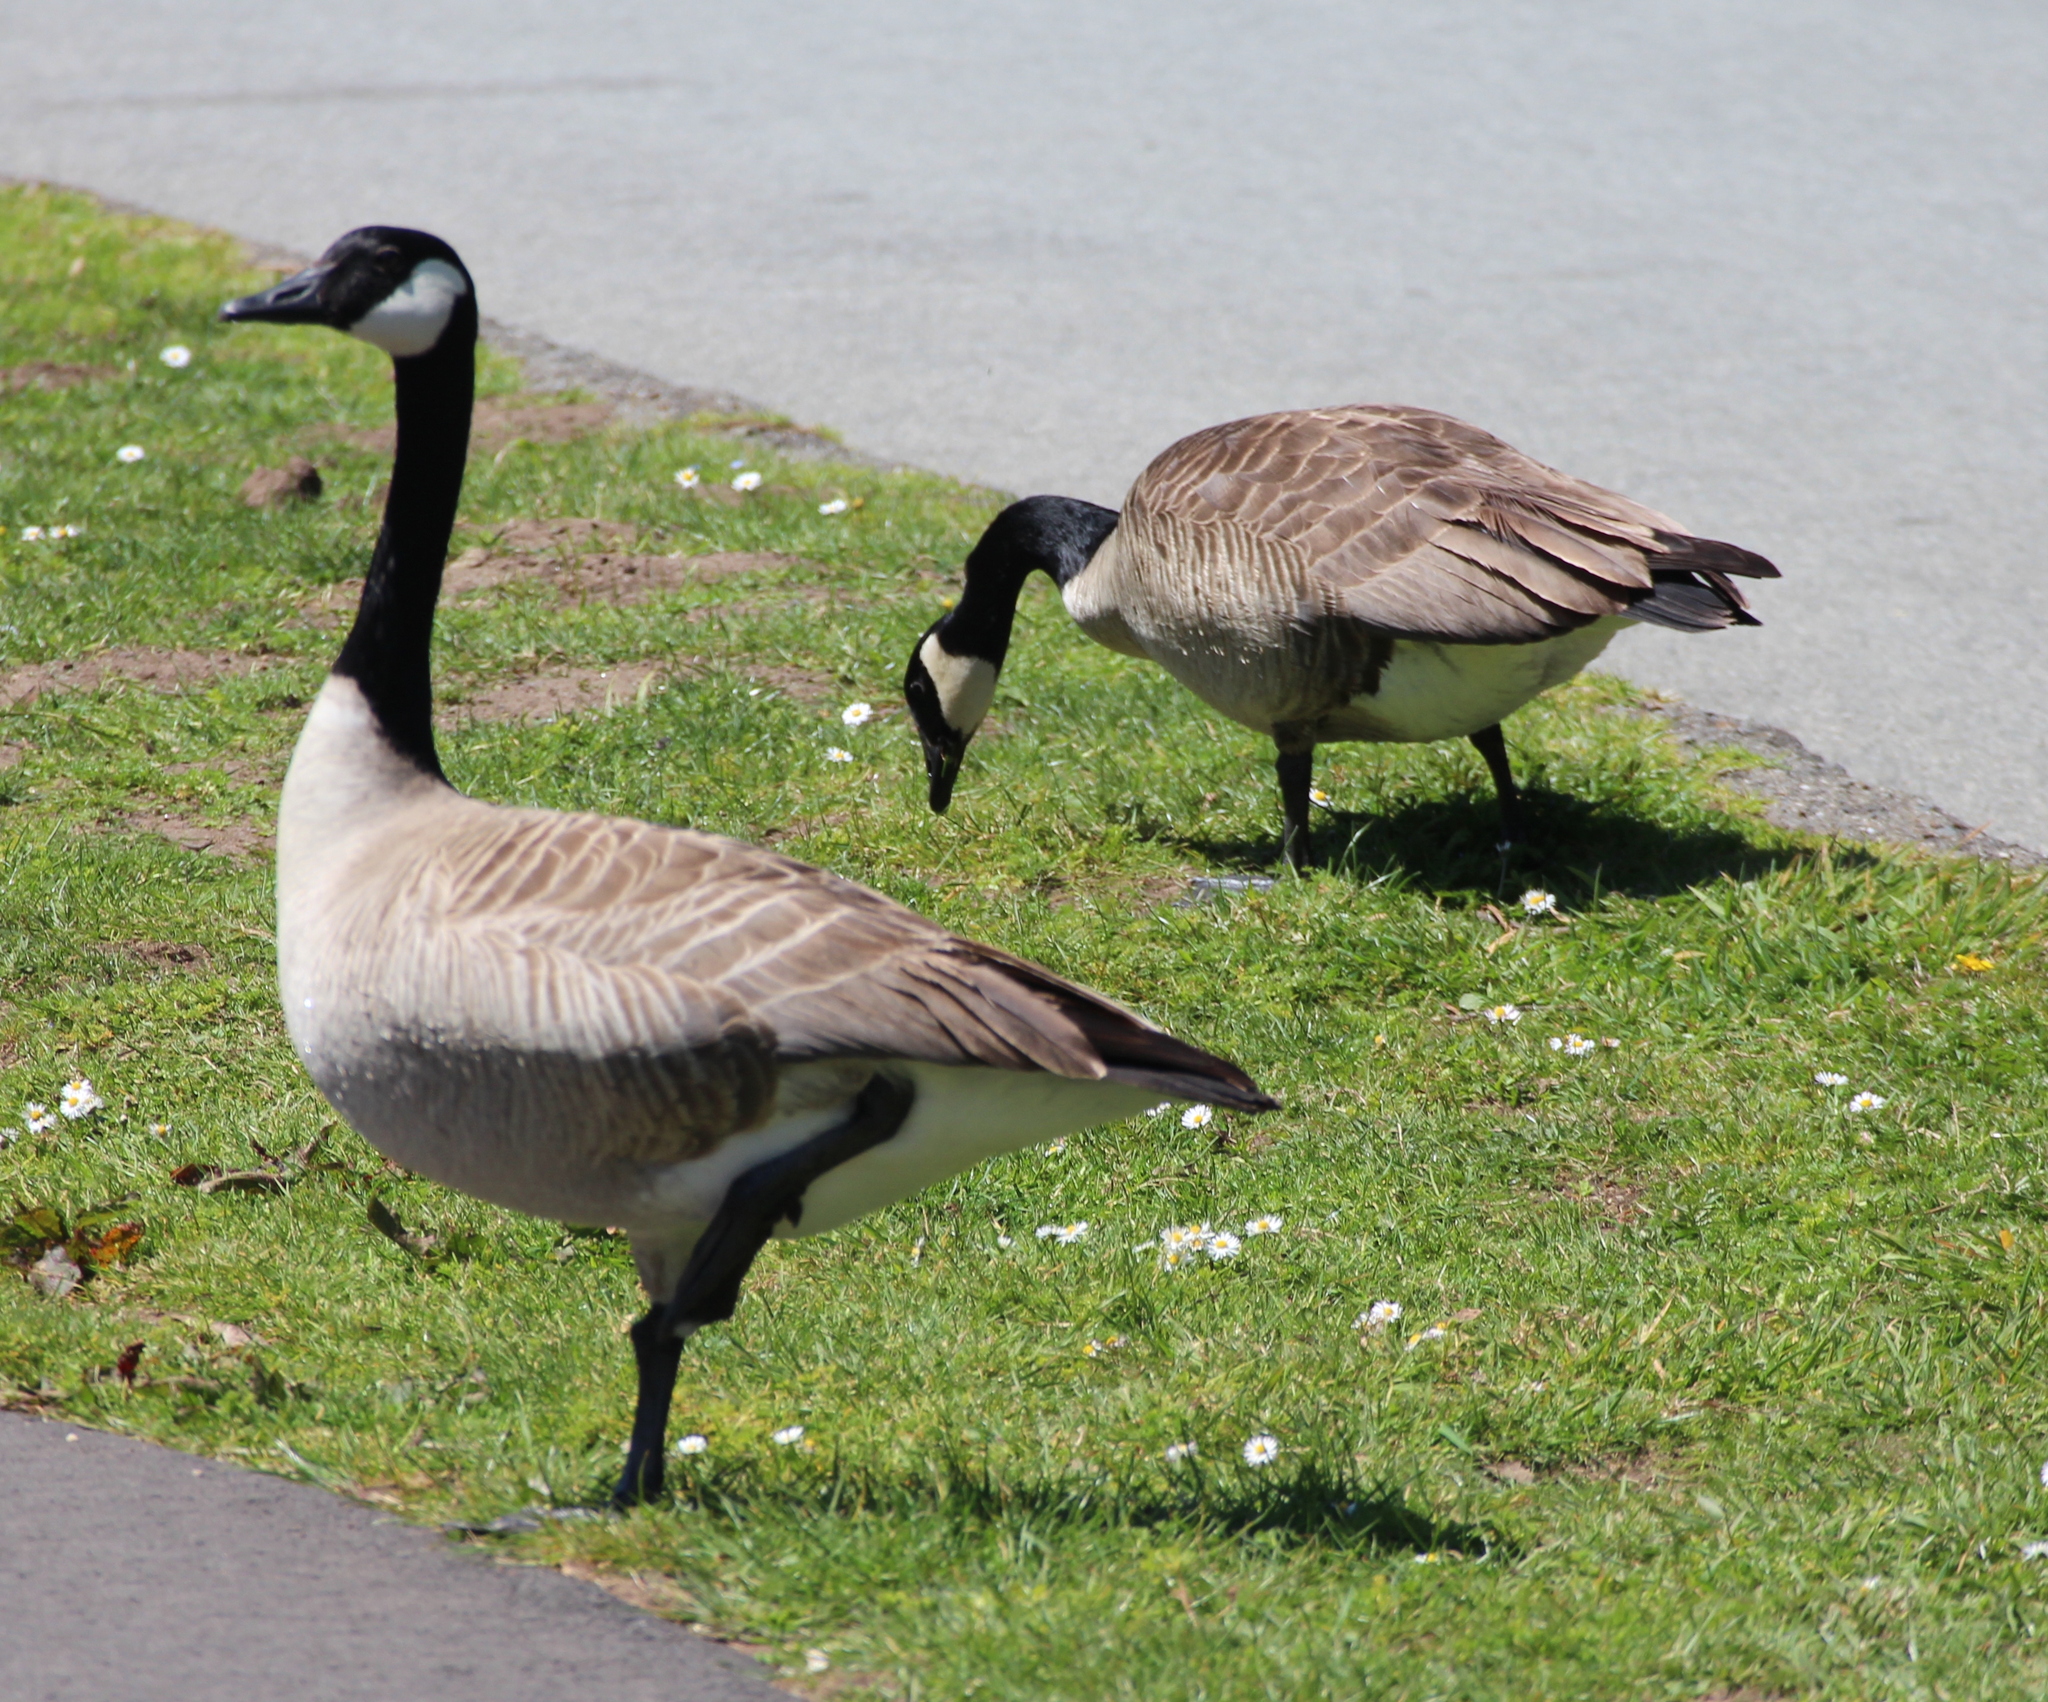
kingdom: Animalia
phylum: Chordata
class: Aves
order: Anseriformes
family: Anatidae
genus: Branta
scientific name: Branta canadensis
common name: Canada goose
